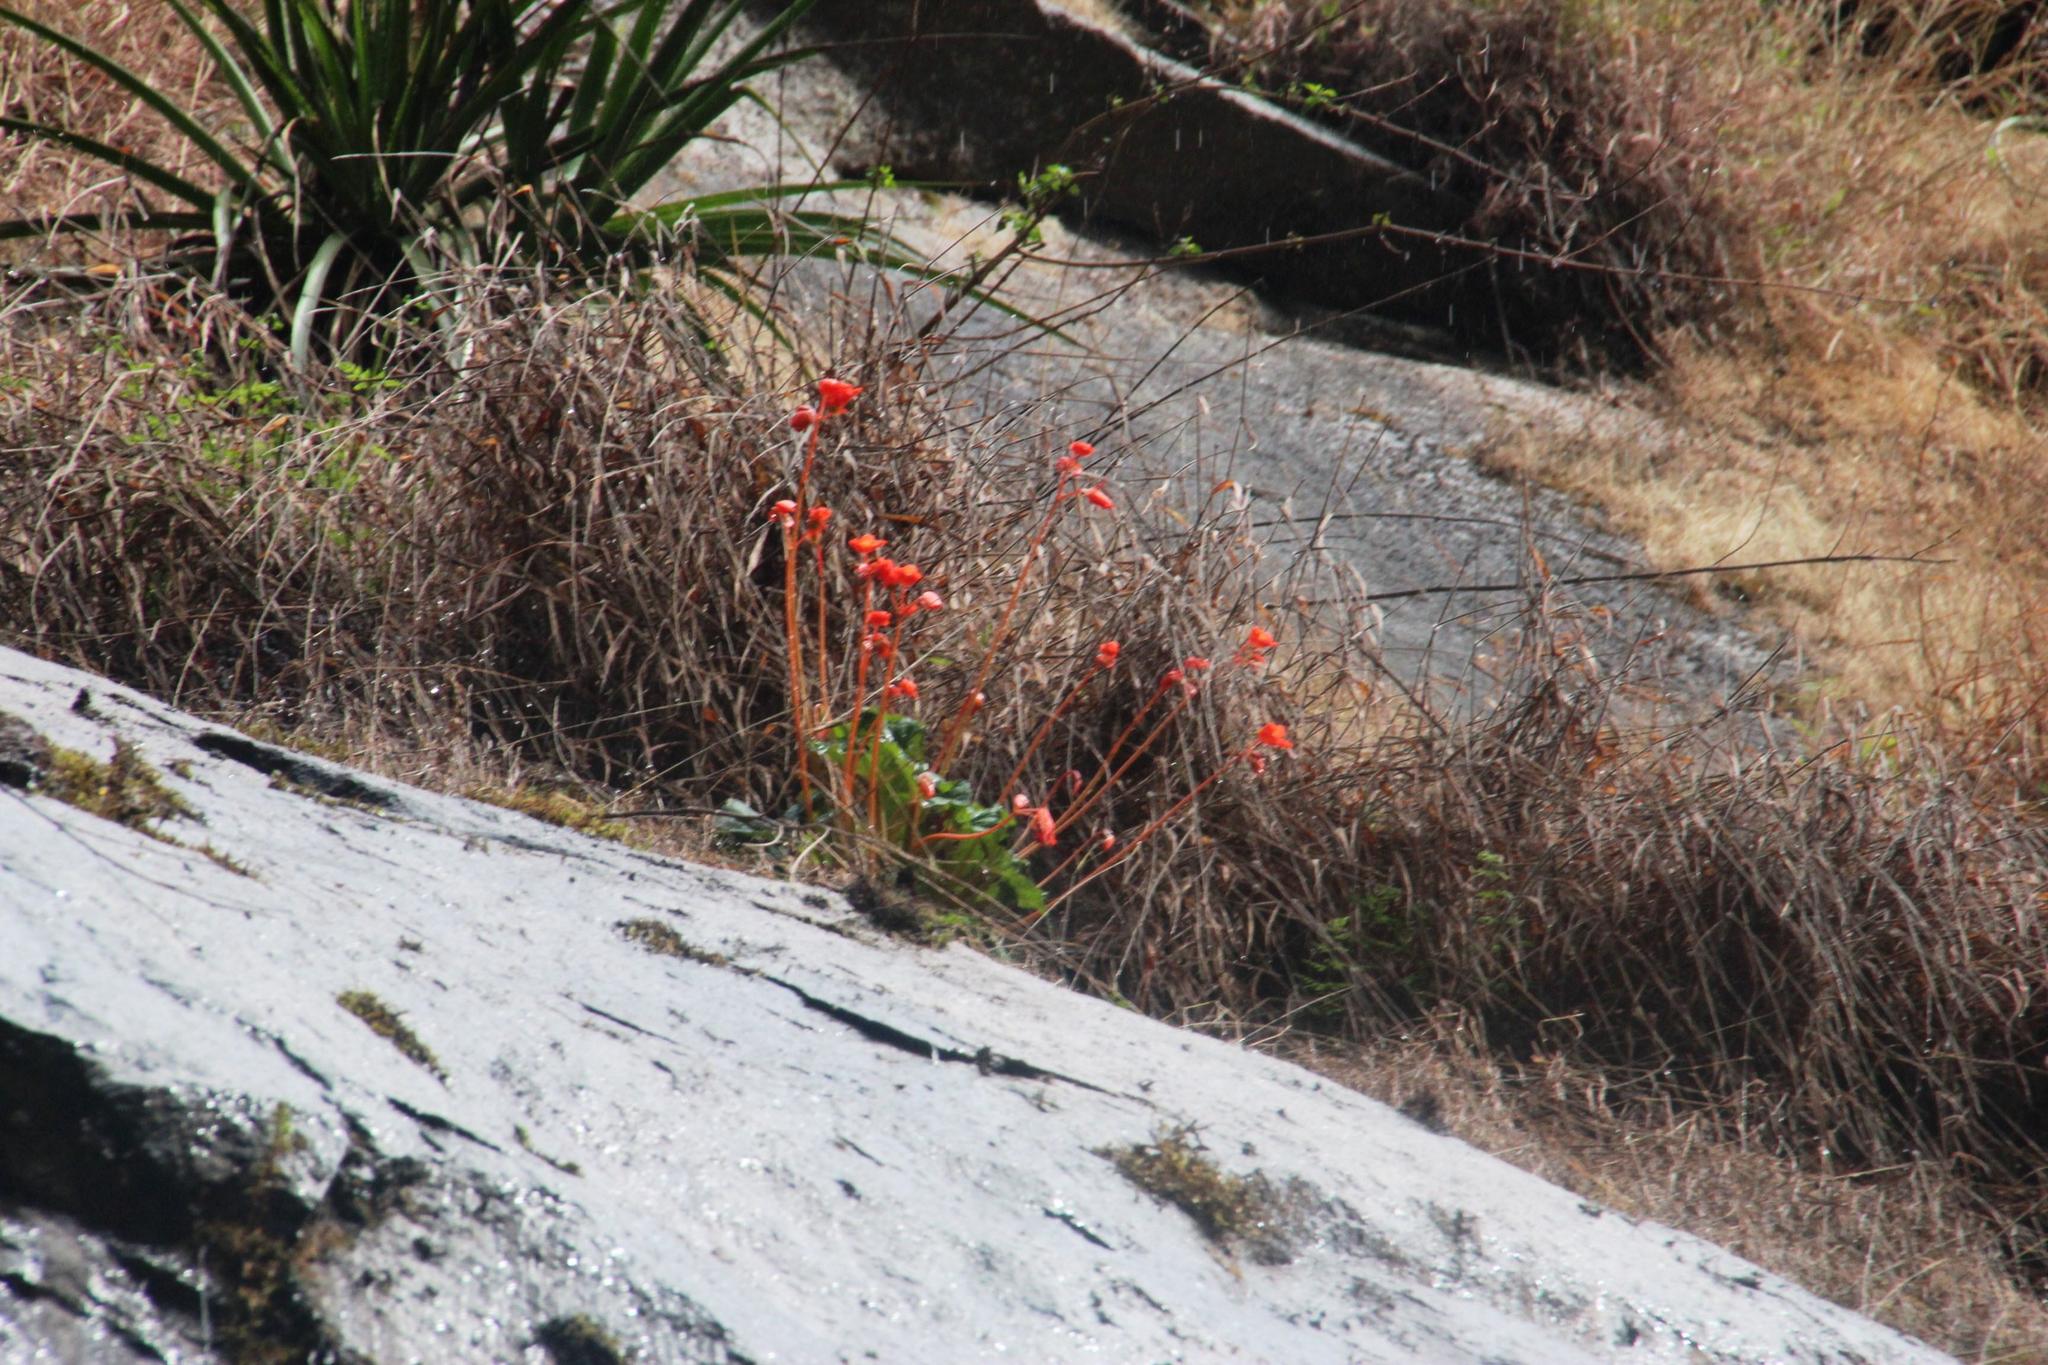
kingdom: Plantae
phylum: Tracheophyta
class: Magnoliopsida
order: Cucurbitales
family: Begoniaceae
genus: Begonia
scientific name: Begonia veitchii
